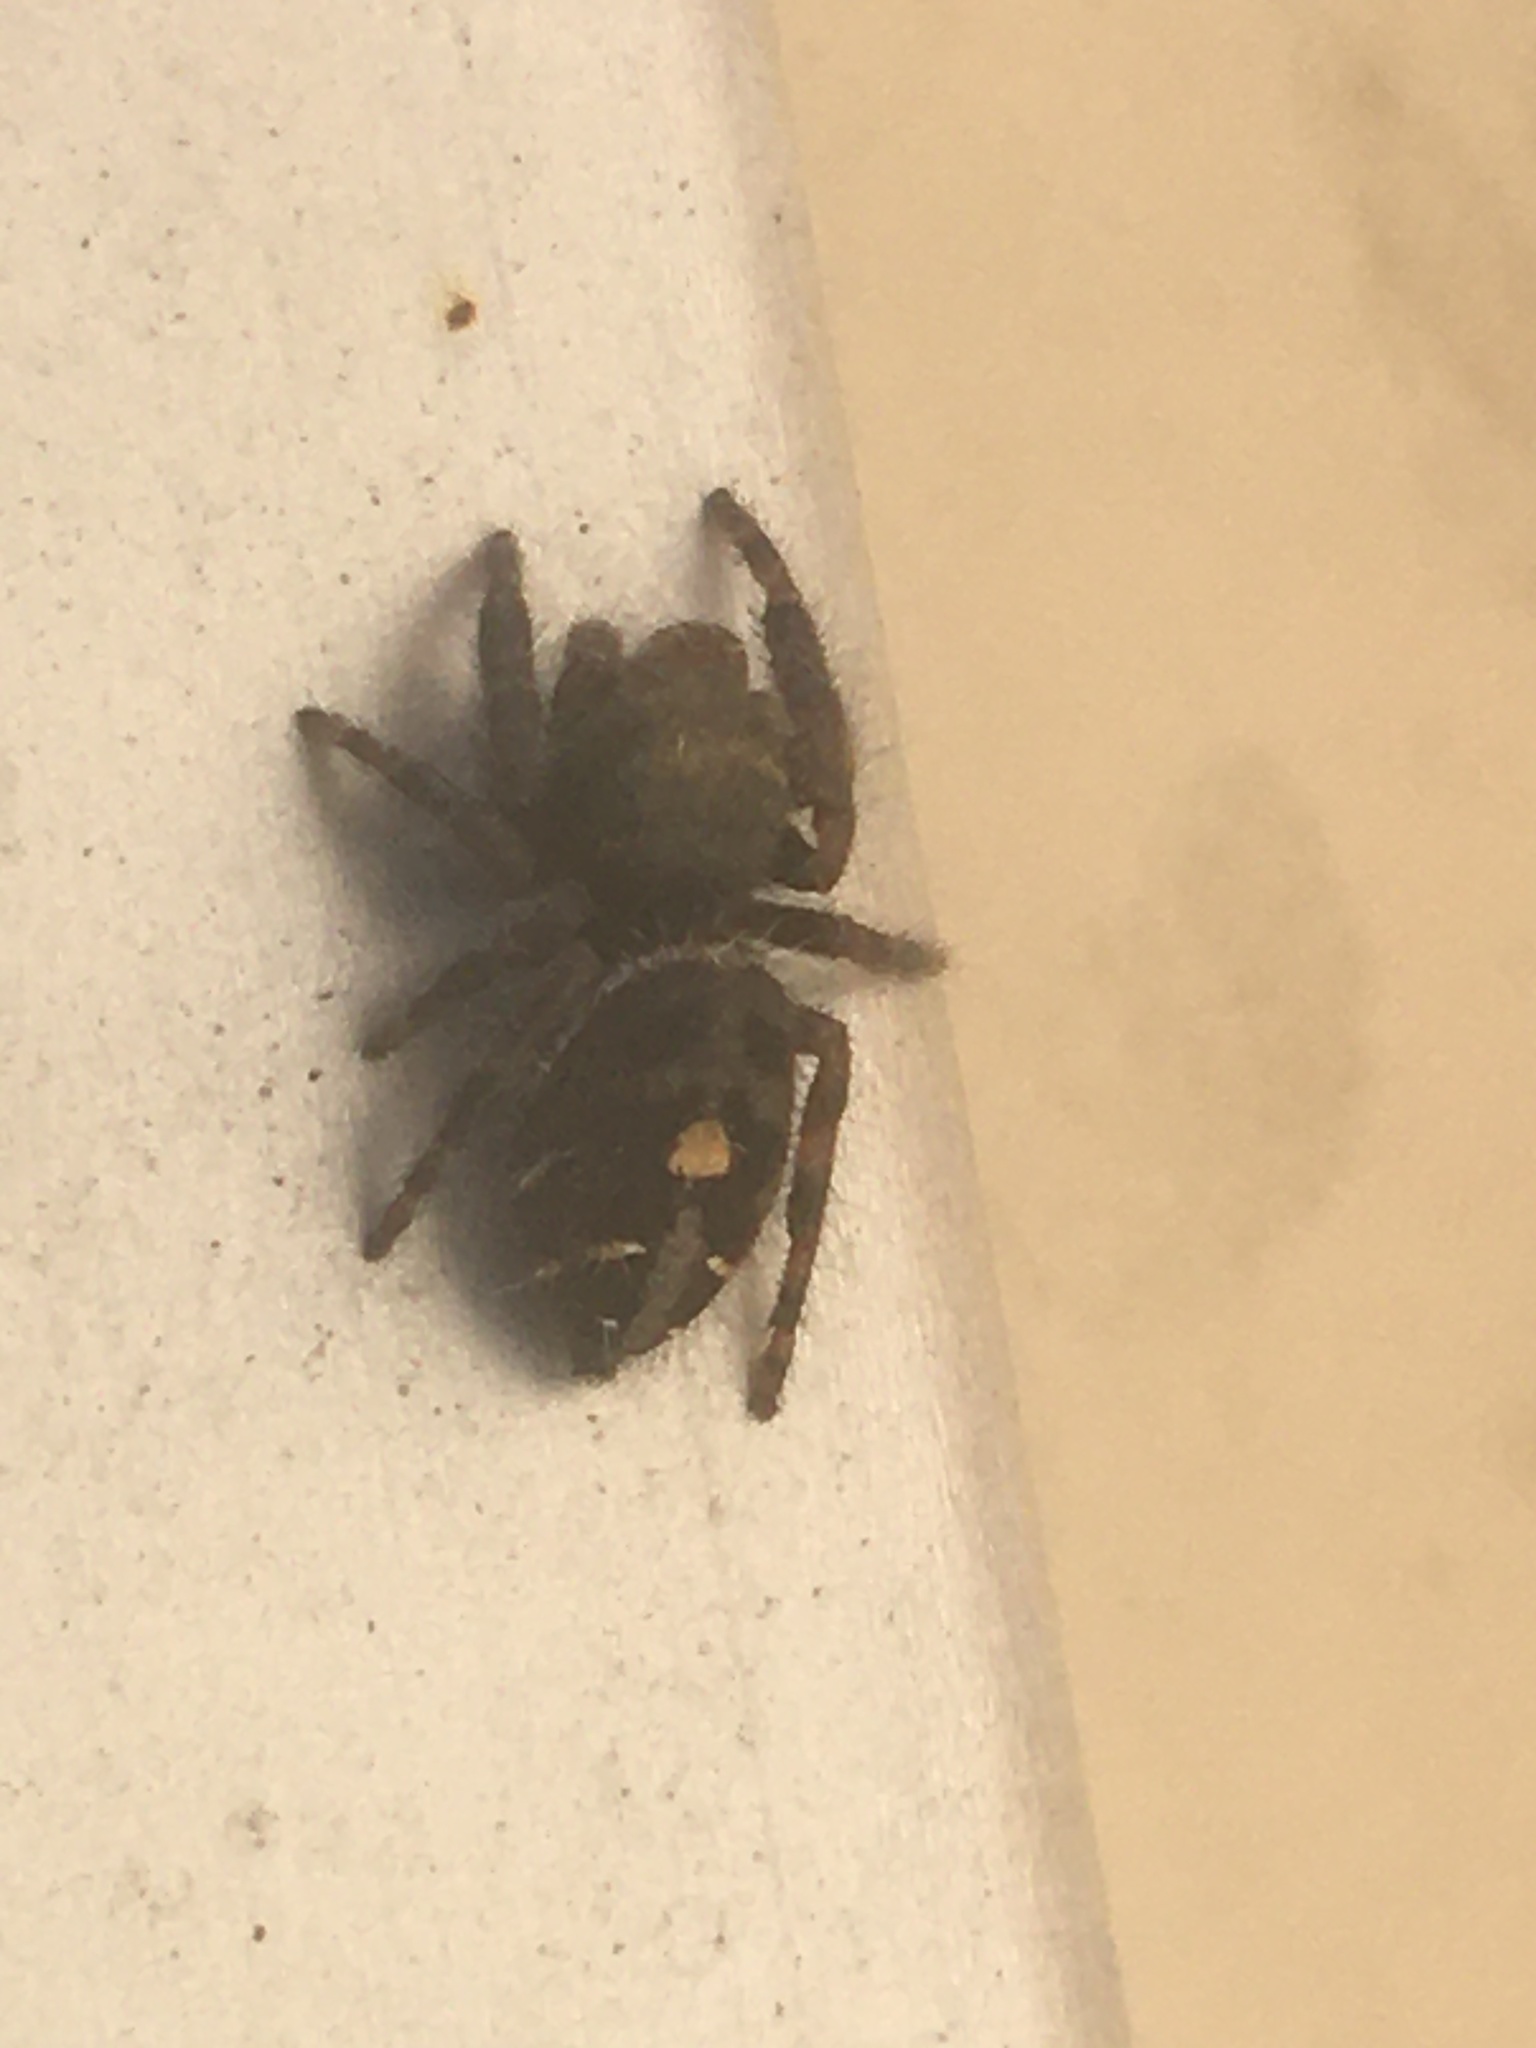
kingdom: Animalia
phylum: Arthropoda
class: Arachnida
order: Araneae
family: Salticidae
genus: Phidippus
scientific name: Phidippus audax
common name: Bold jumper
